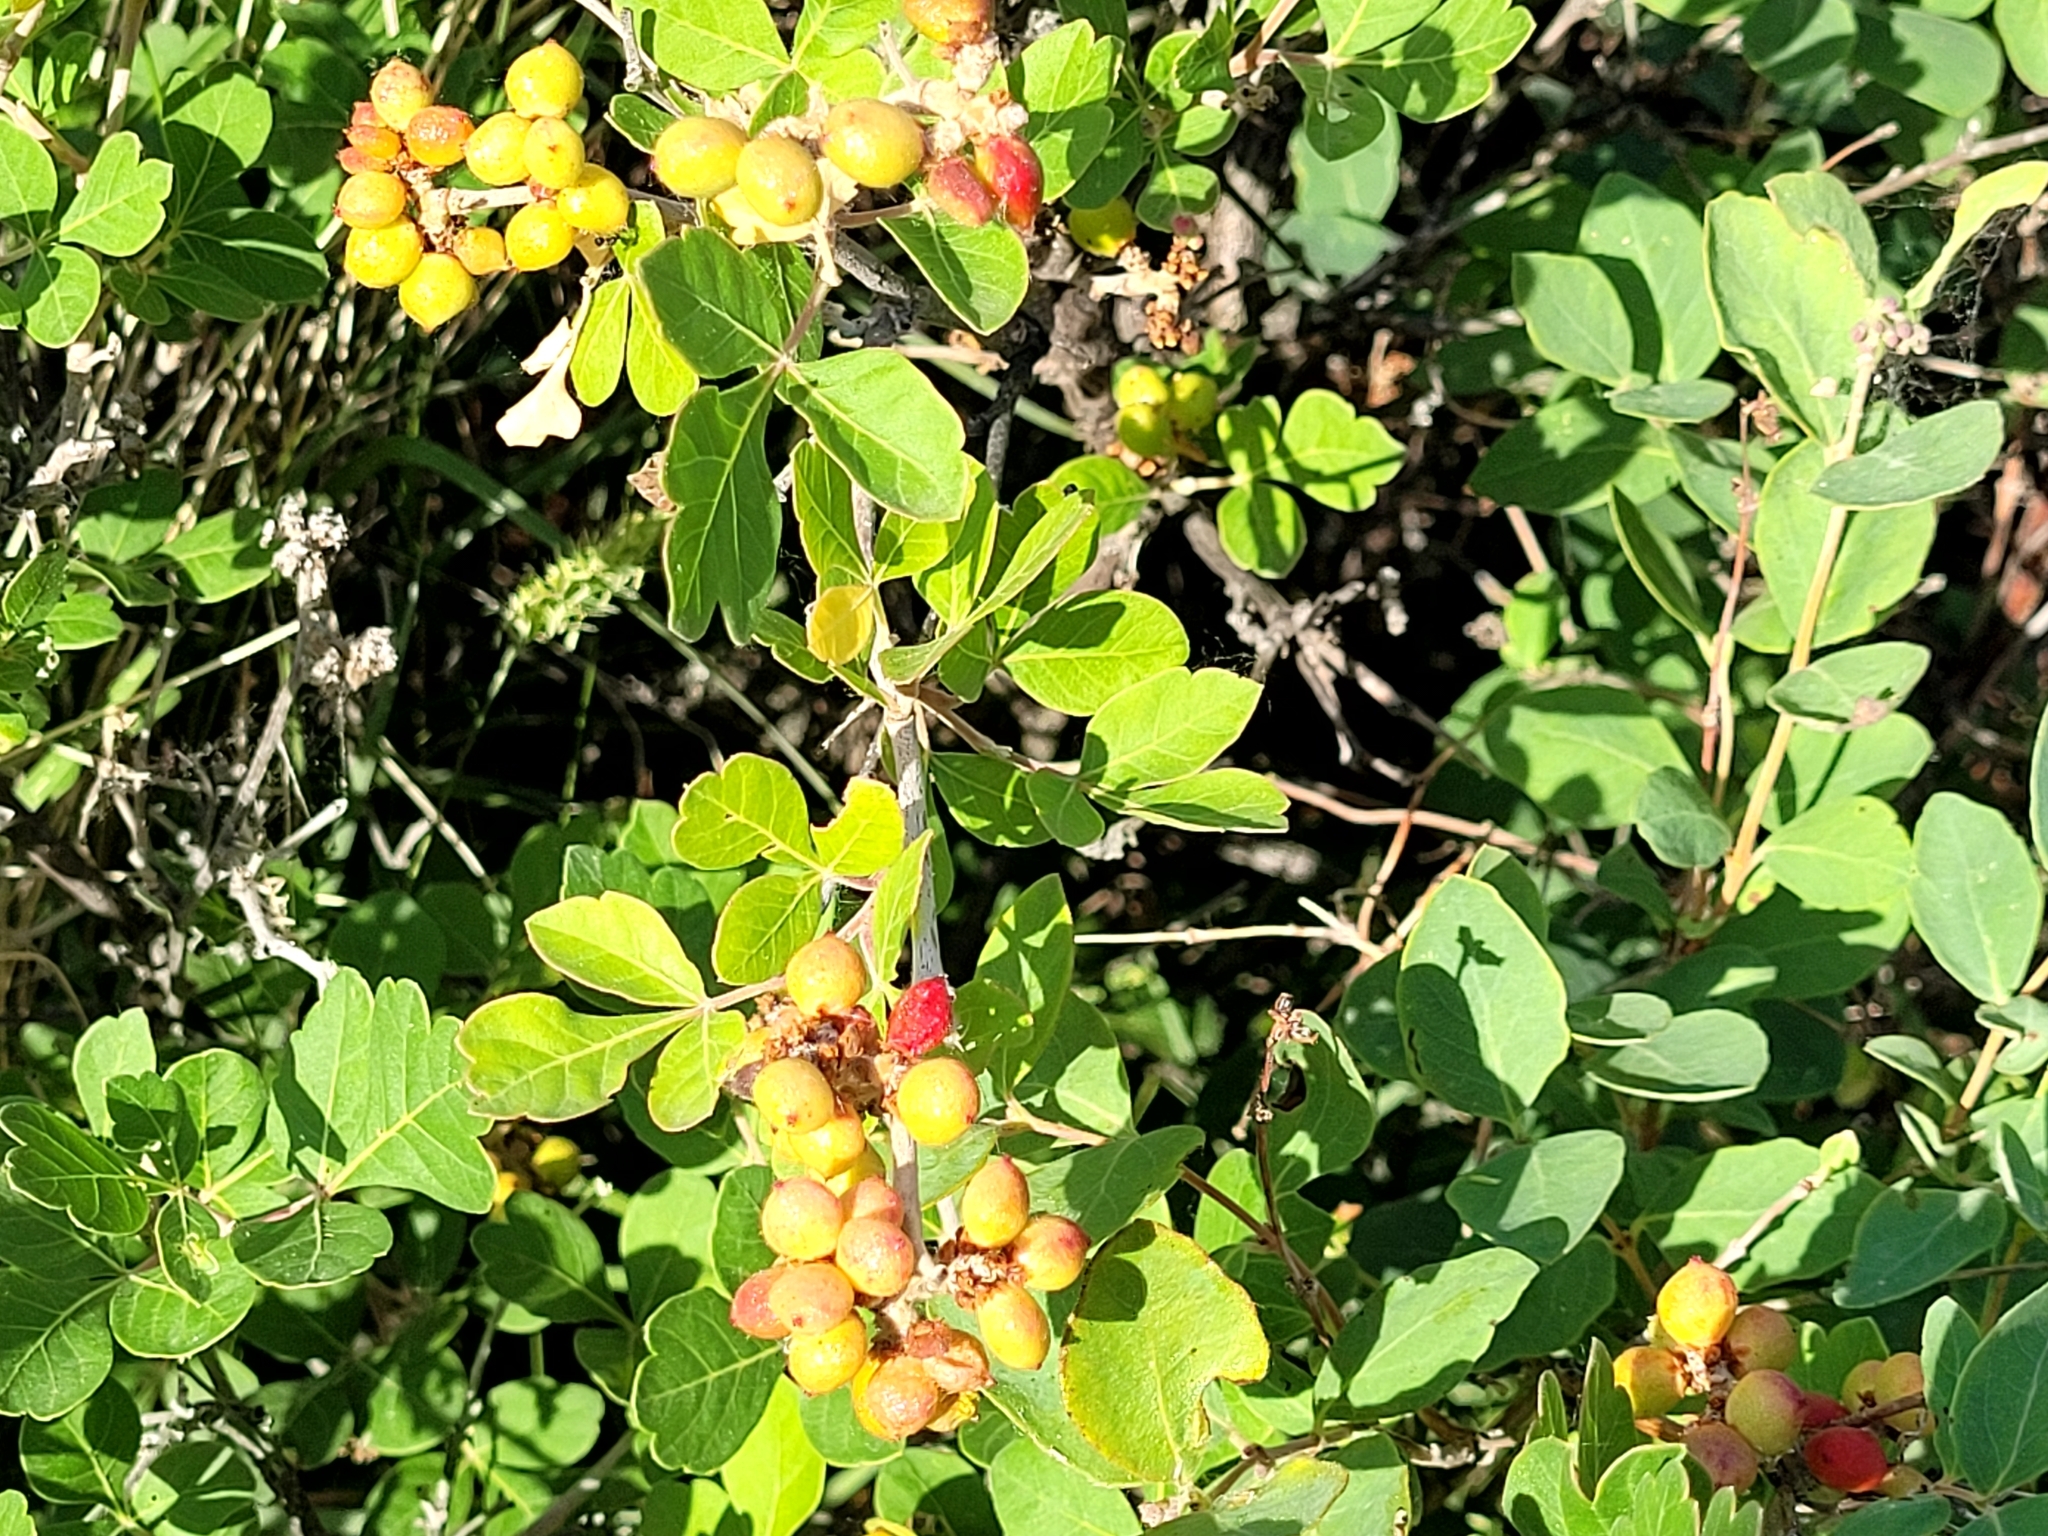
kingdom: Plantae
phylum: Tracheophyta
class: Magnoliopsida
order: Sapindales
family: Anacardiaceae
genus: Rhus
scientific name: Rhus aromatica
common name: Aromatic sumac
